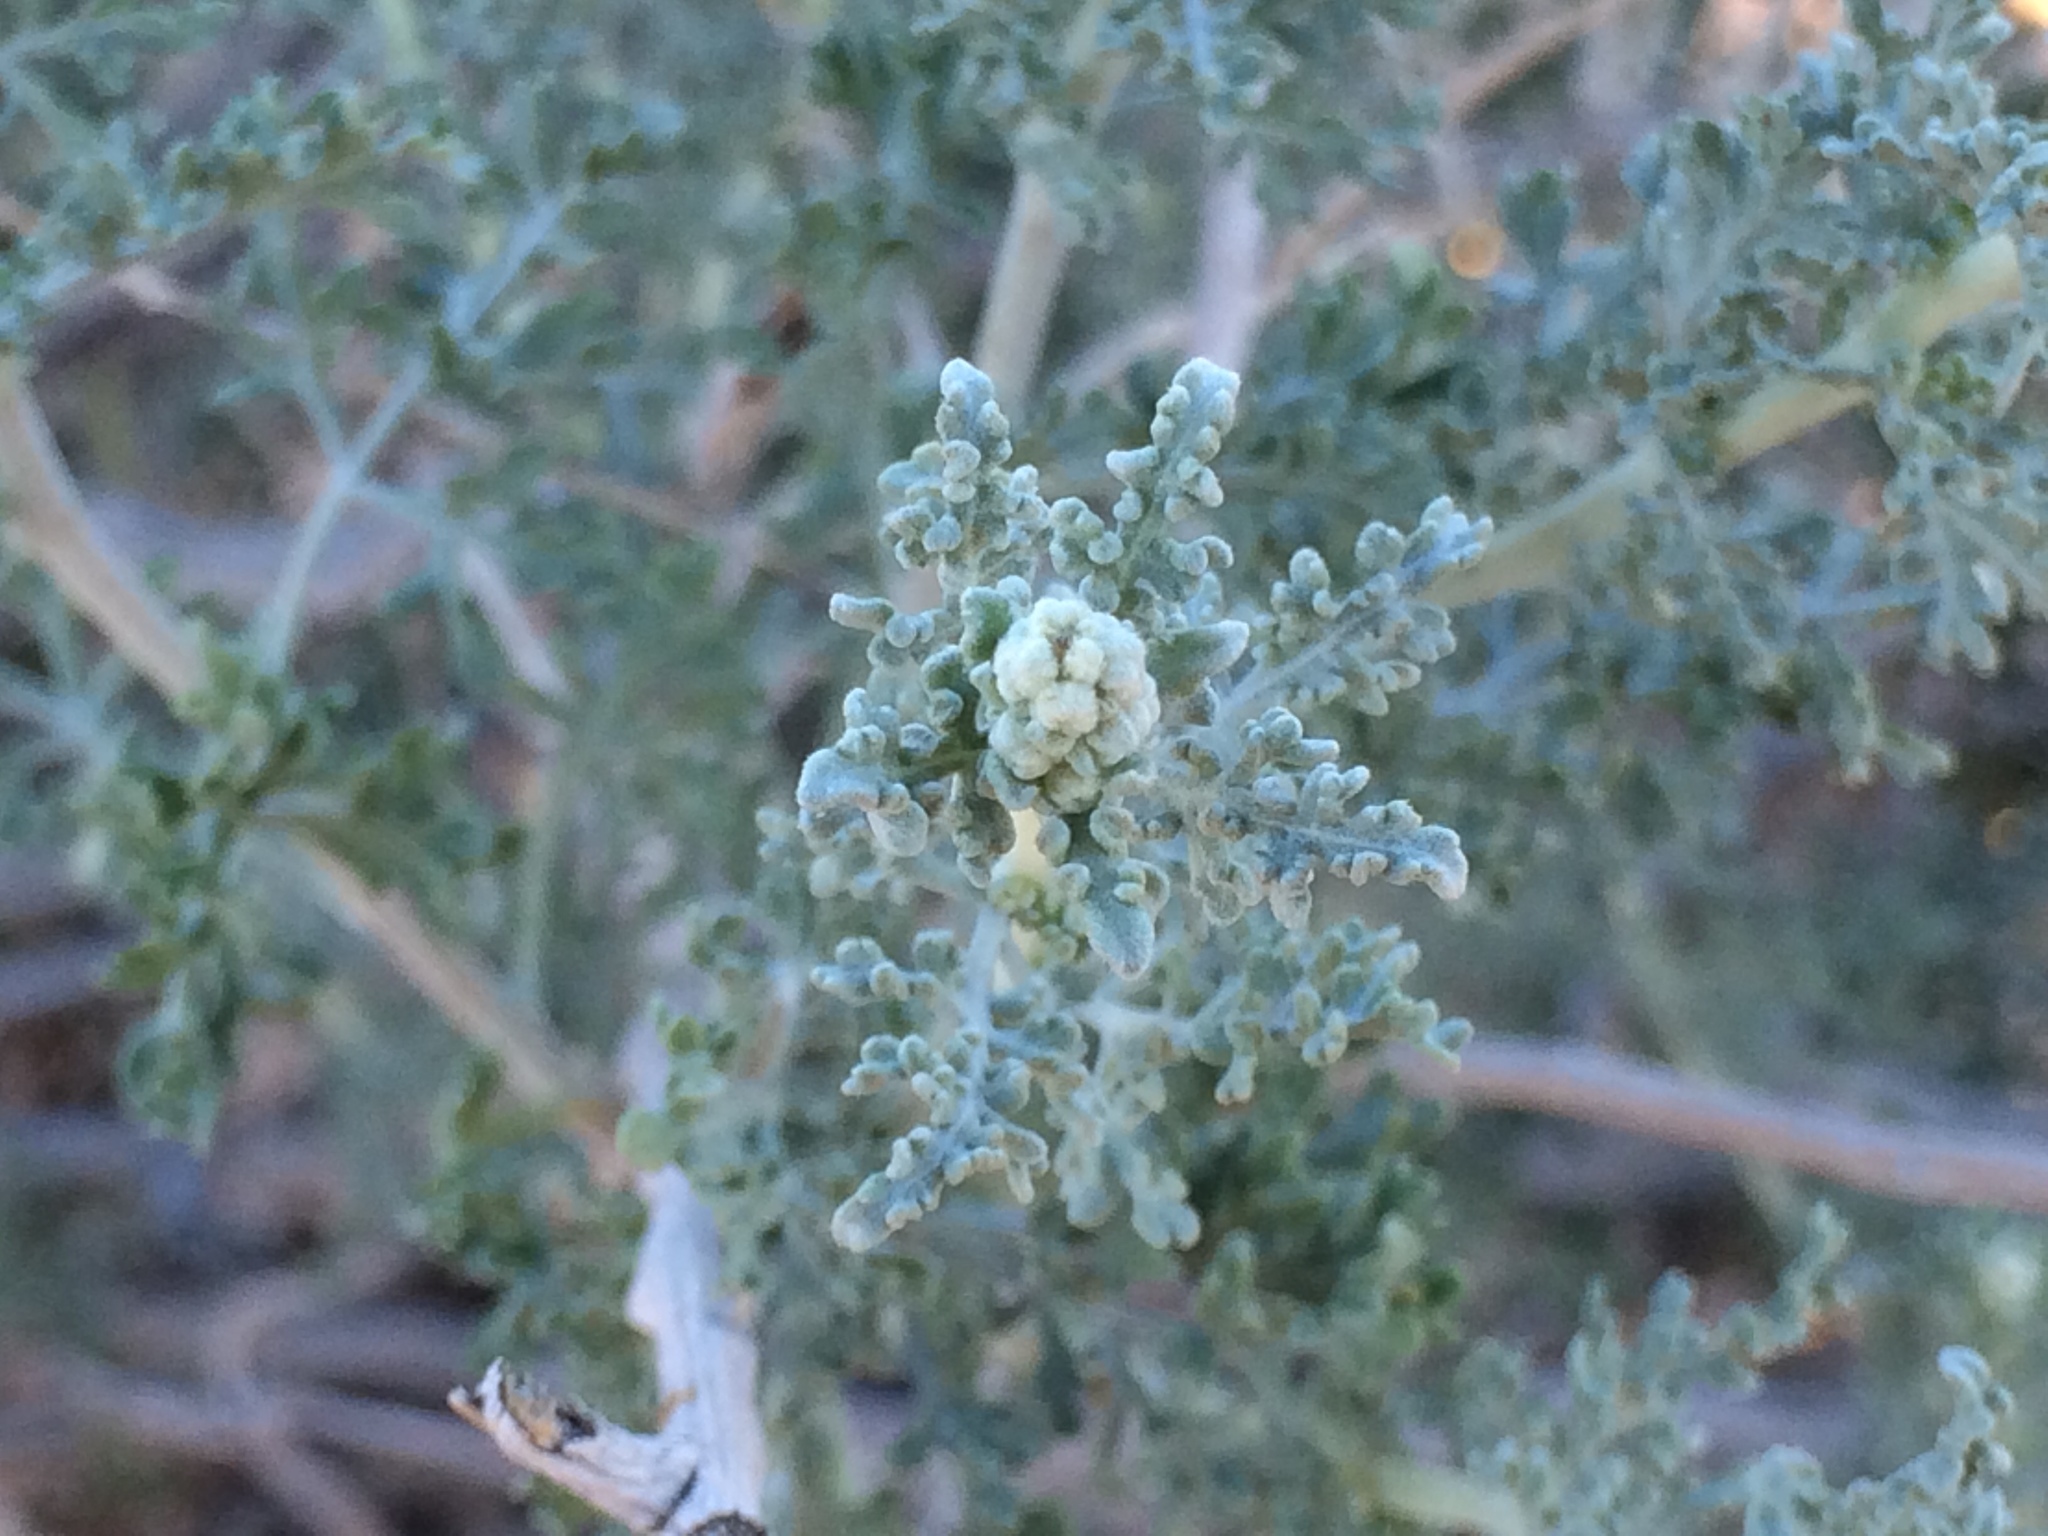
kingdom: Plantae
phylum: Tracheophyta
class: Magnoliopsida
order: Asterales
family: Asteraceae
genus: Ambrosia
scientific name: Ambrosia dumosa
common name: Bur-sage
